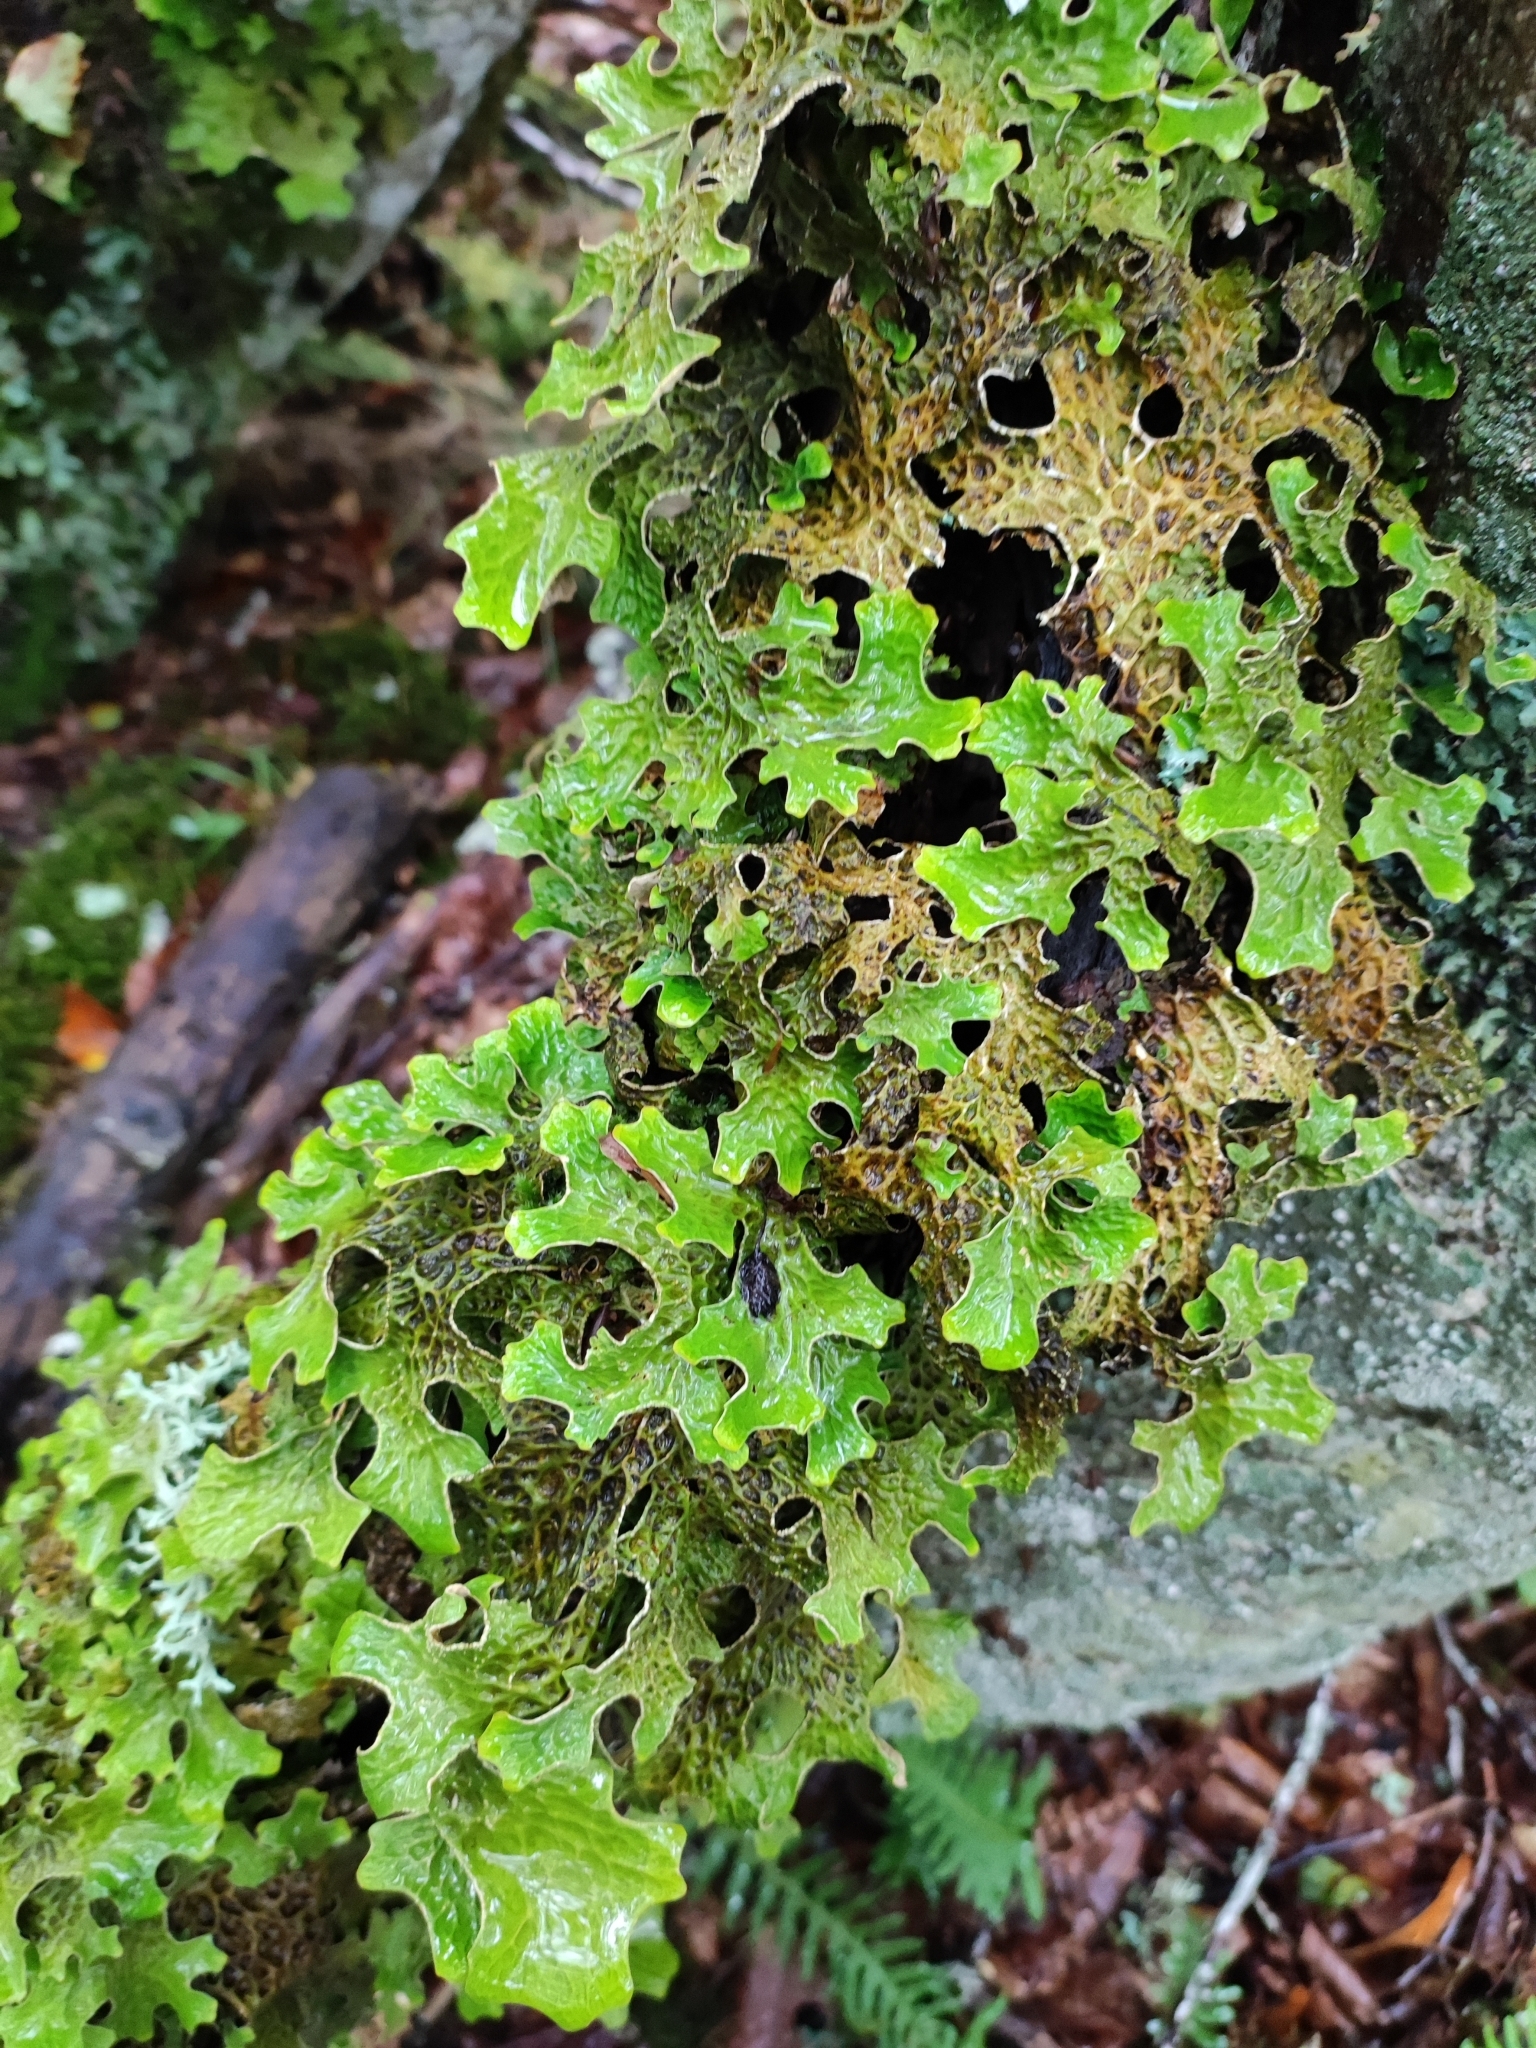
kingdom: Fungi
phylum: Ascomycota
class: Lecanoromycetes
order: Peltigerales
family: Lobariaceae
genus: Lobaria
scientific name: Lobaria pulmonaria
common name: Lungwort
